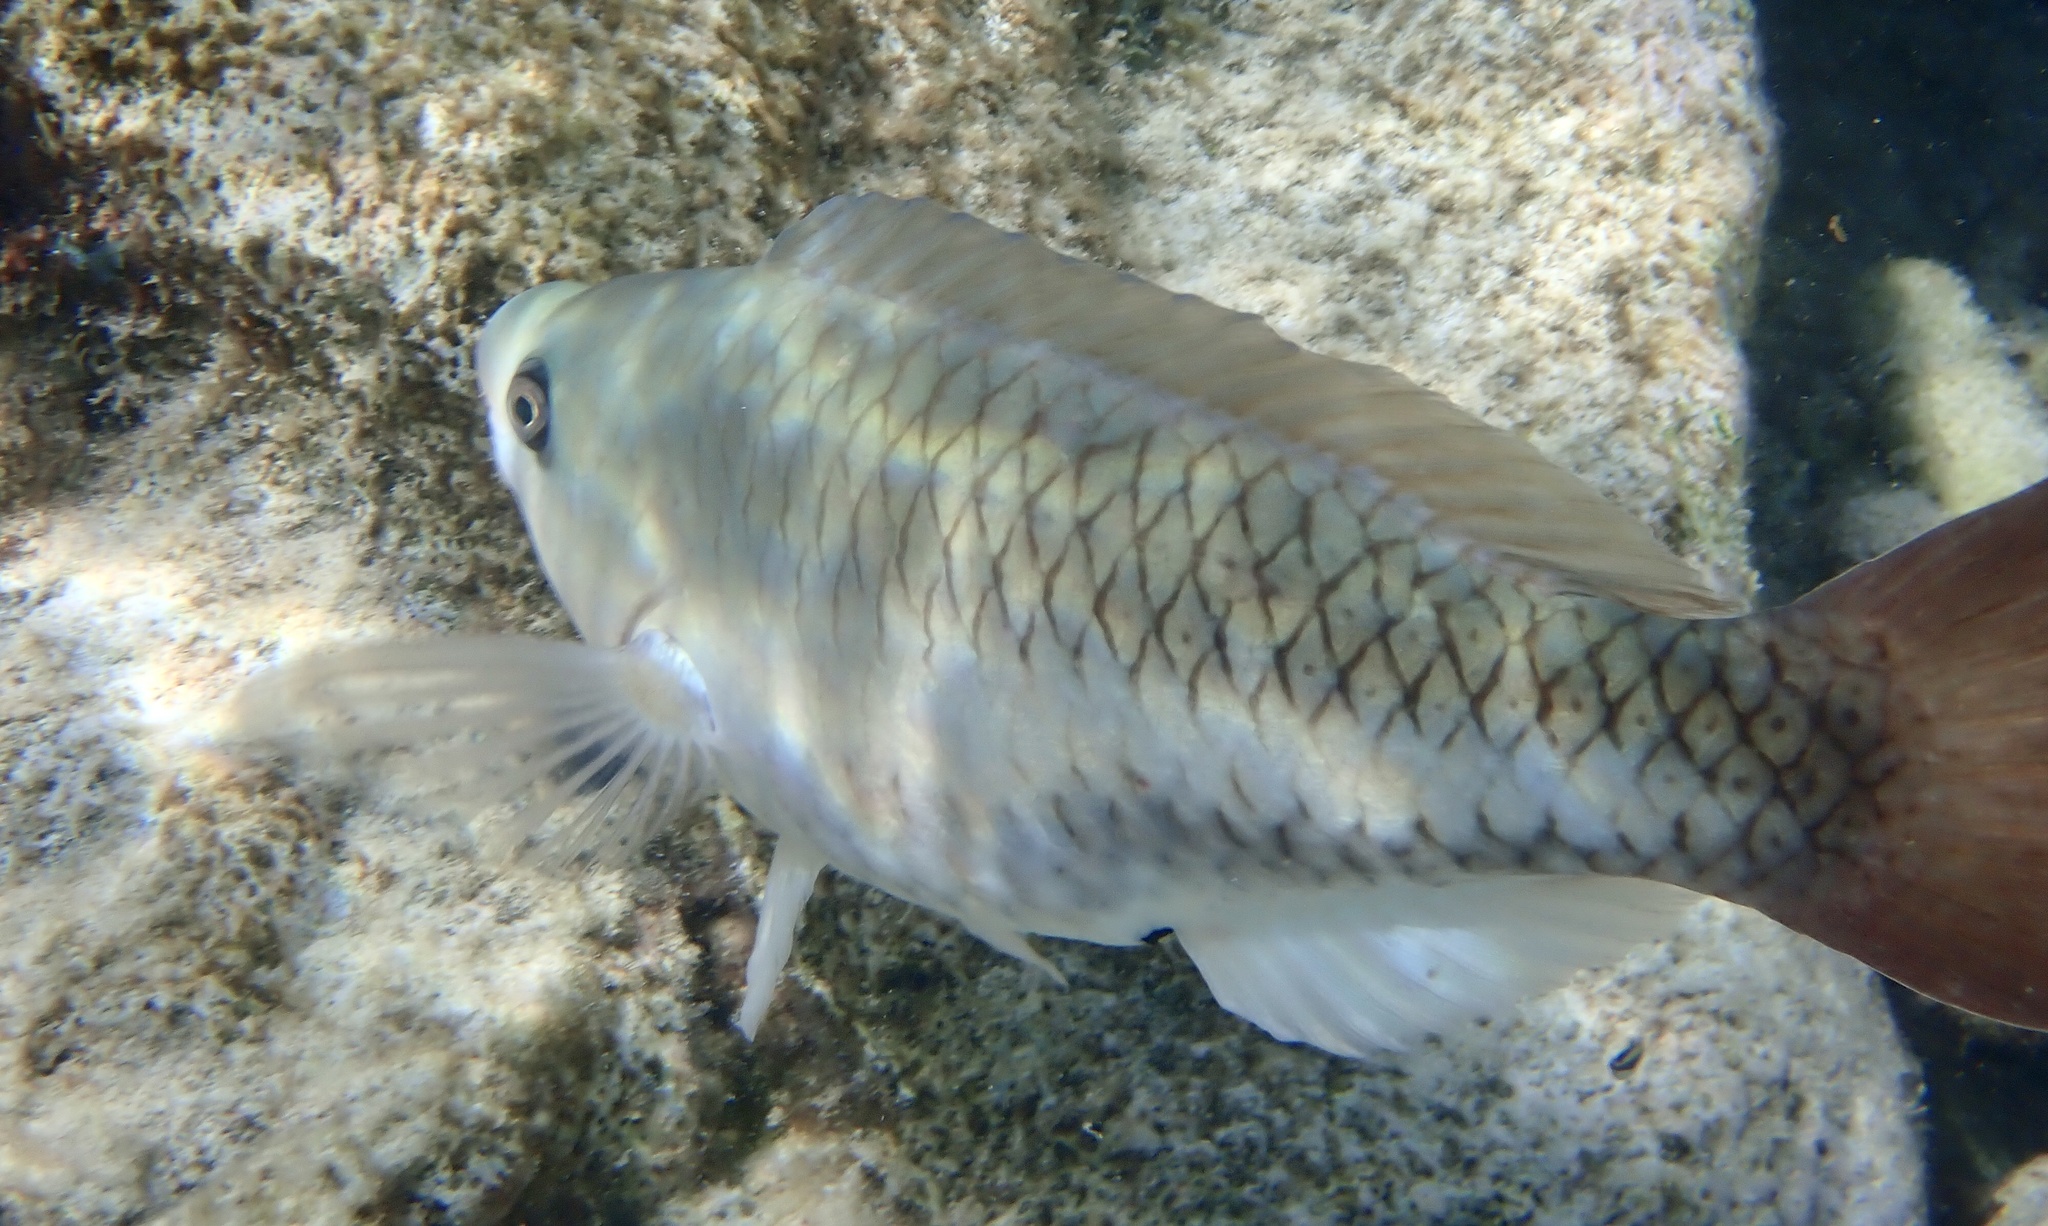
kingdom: Animalia
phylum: Chordata
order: Perciformes
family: Scaridae
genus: Scarus
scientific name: Scarus vetula
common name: Queen parrotfish
